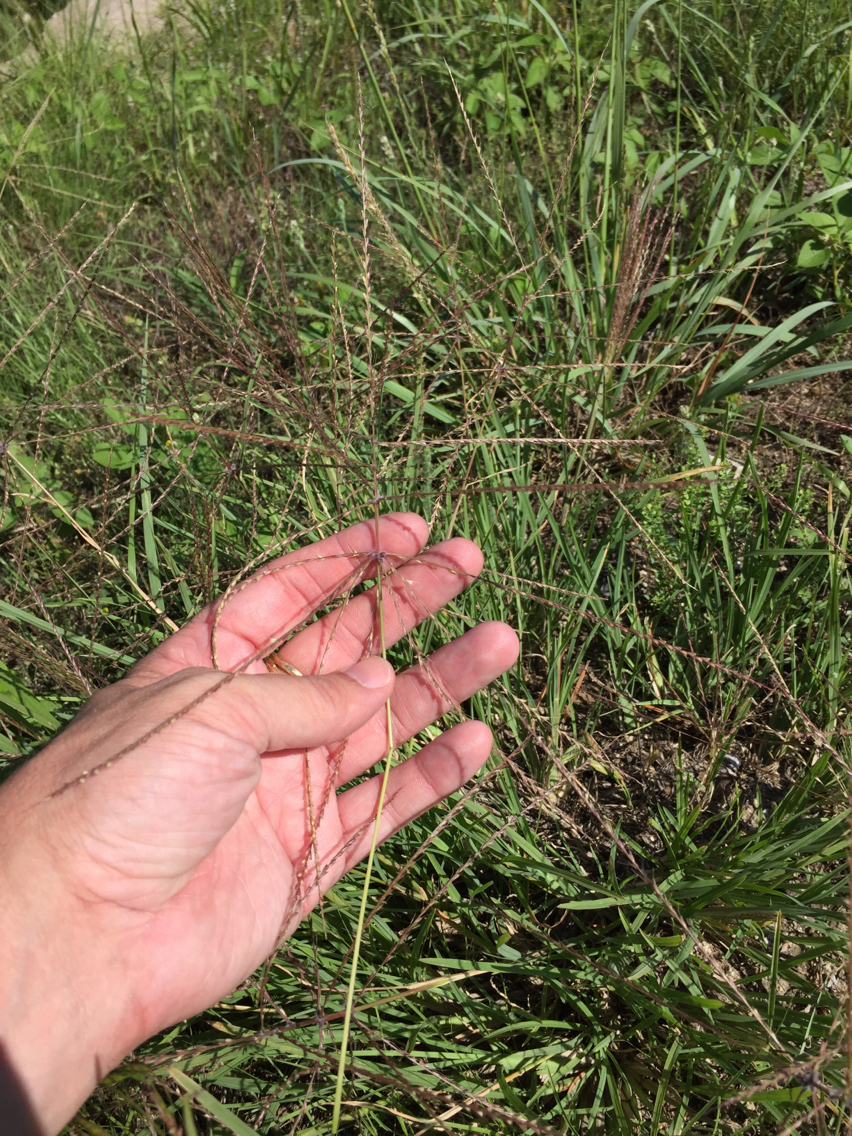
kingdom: Plantae
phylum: Tracheophyta
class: Liliopsida
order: Poales
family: Poaceae
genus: Chloris
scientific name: Chloris verticillata
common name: Tumble windmill grass
